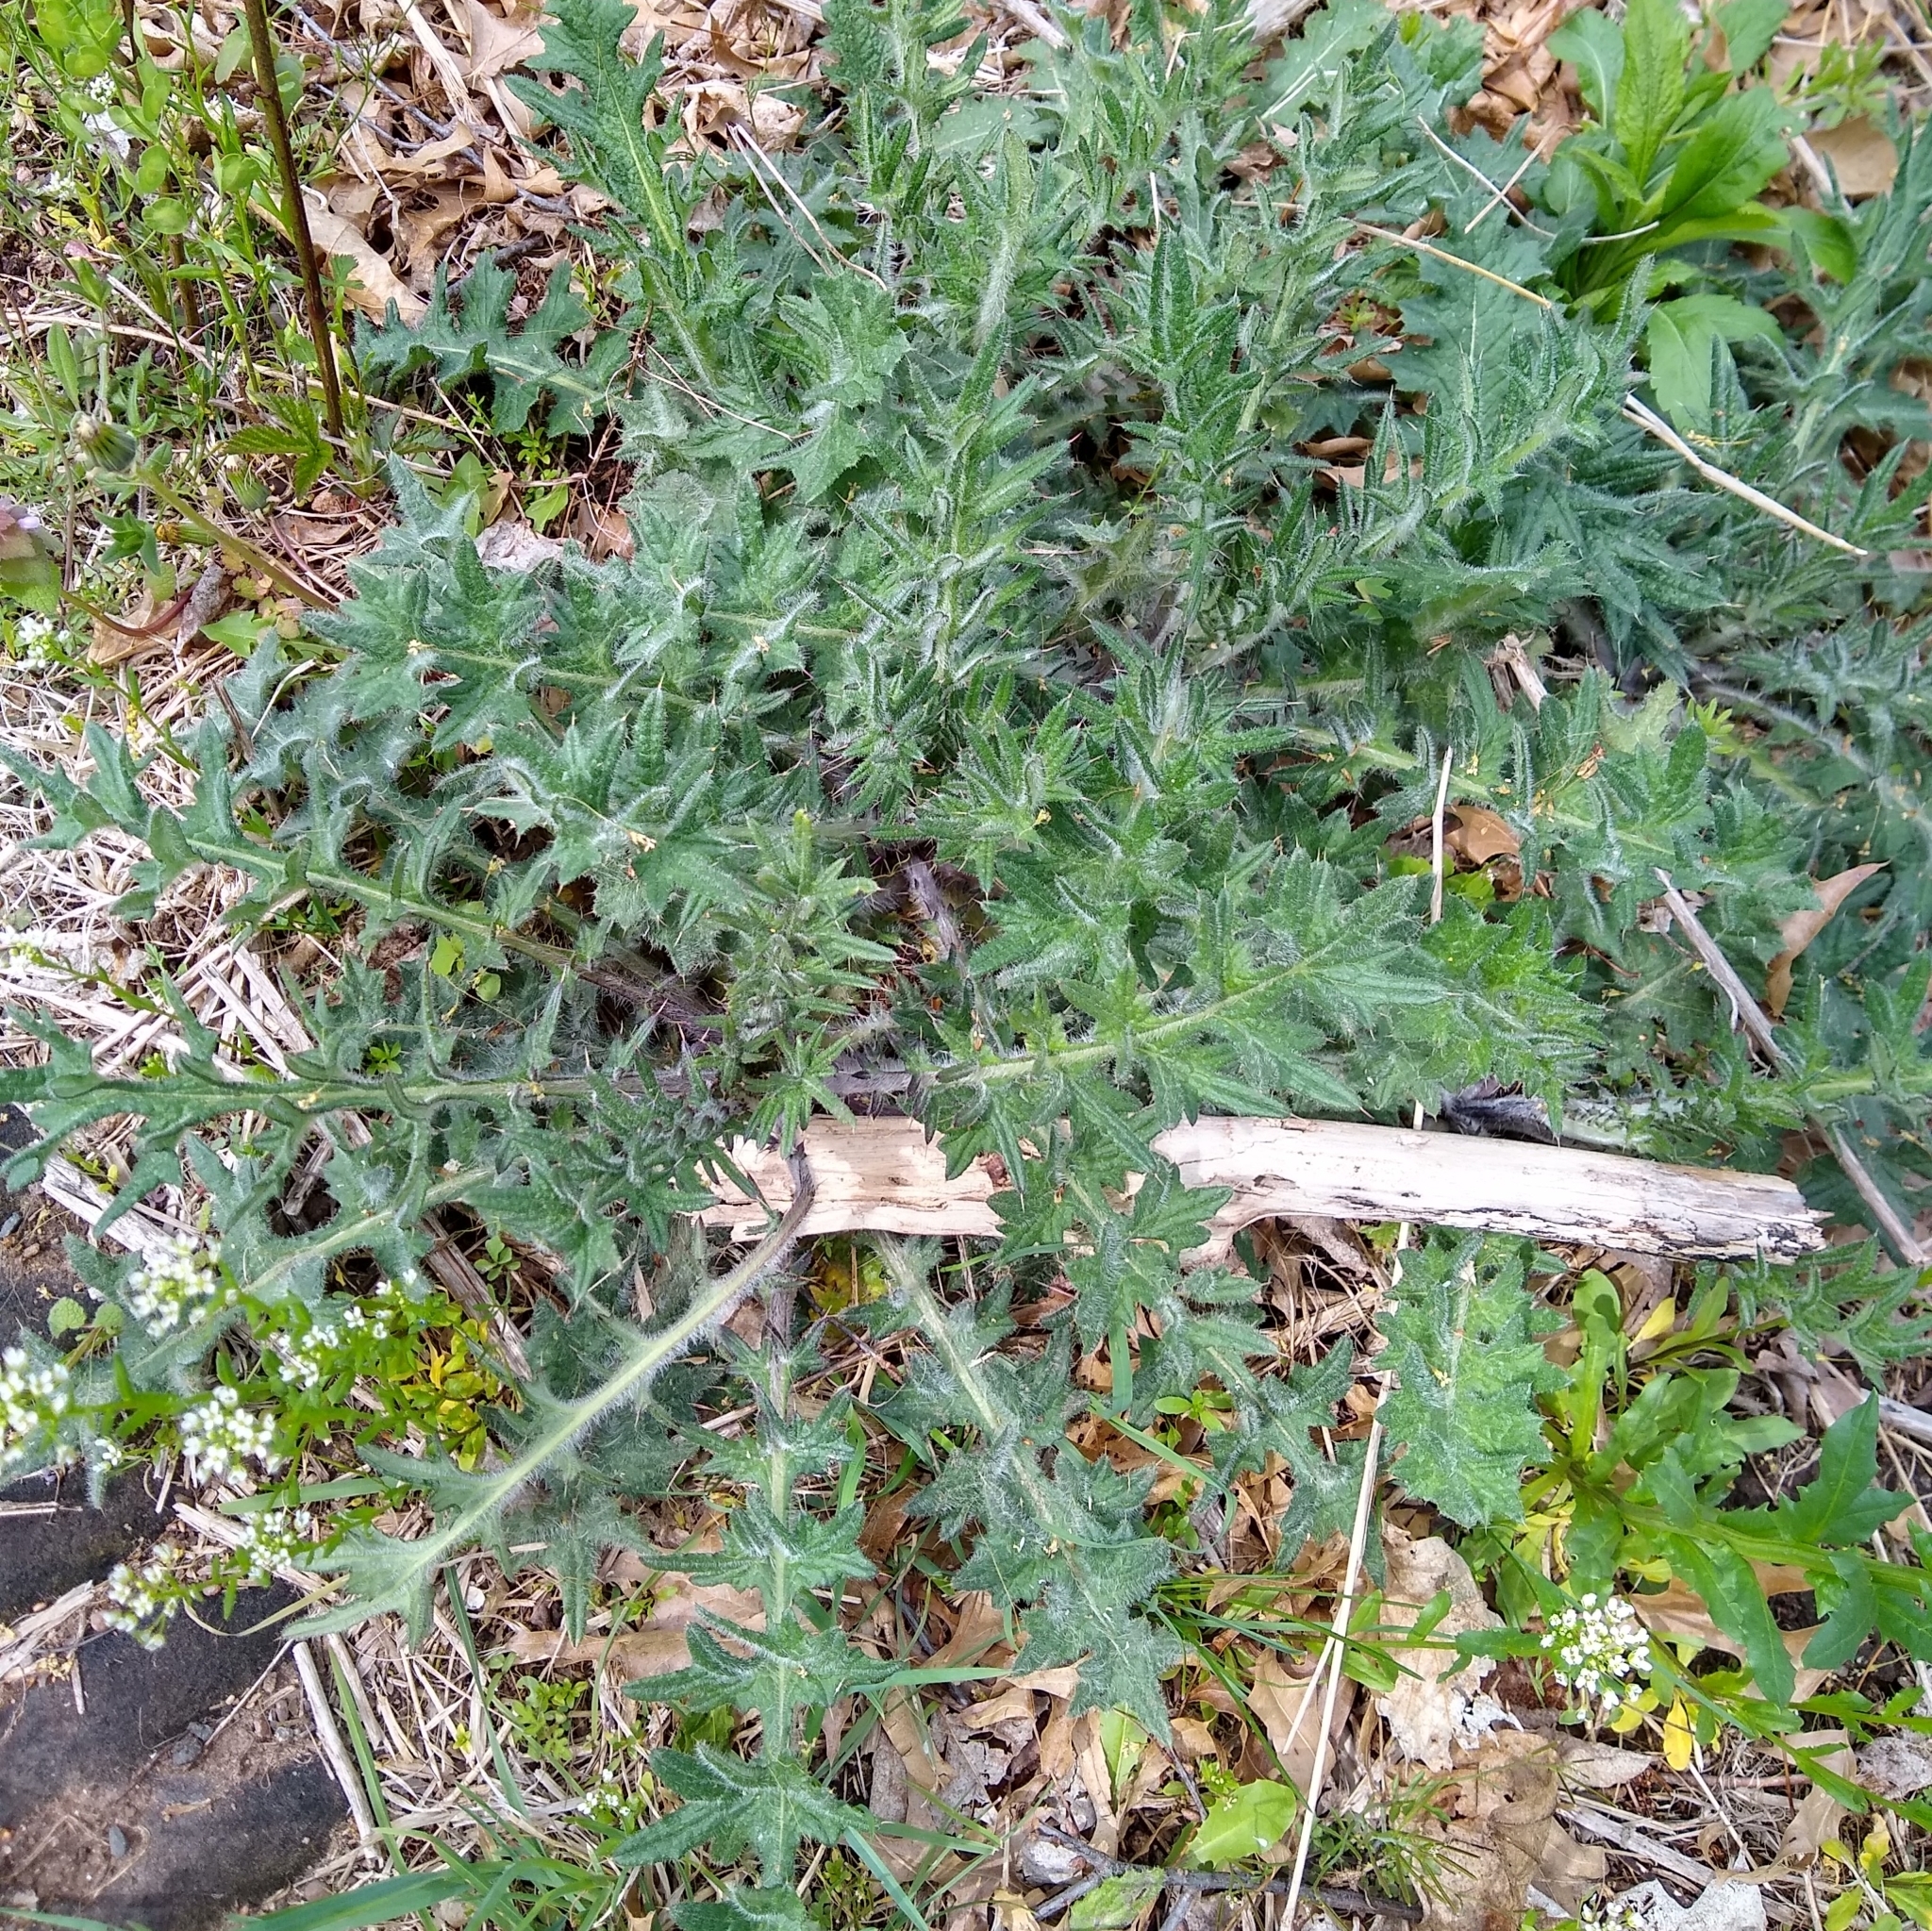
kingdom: Plantae
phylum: Tracheophyta
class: Magnoliopsida
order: Asterales
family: Asteraceae
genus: Cirsium
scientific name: Cirsium vulgare
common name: Bull thistle
